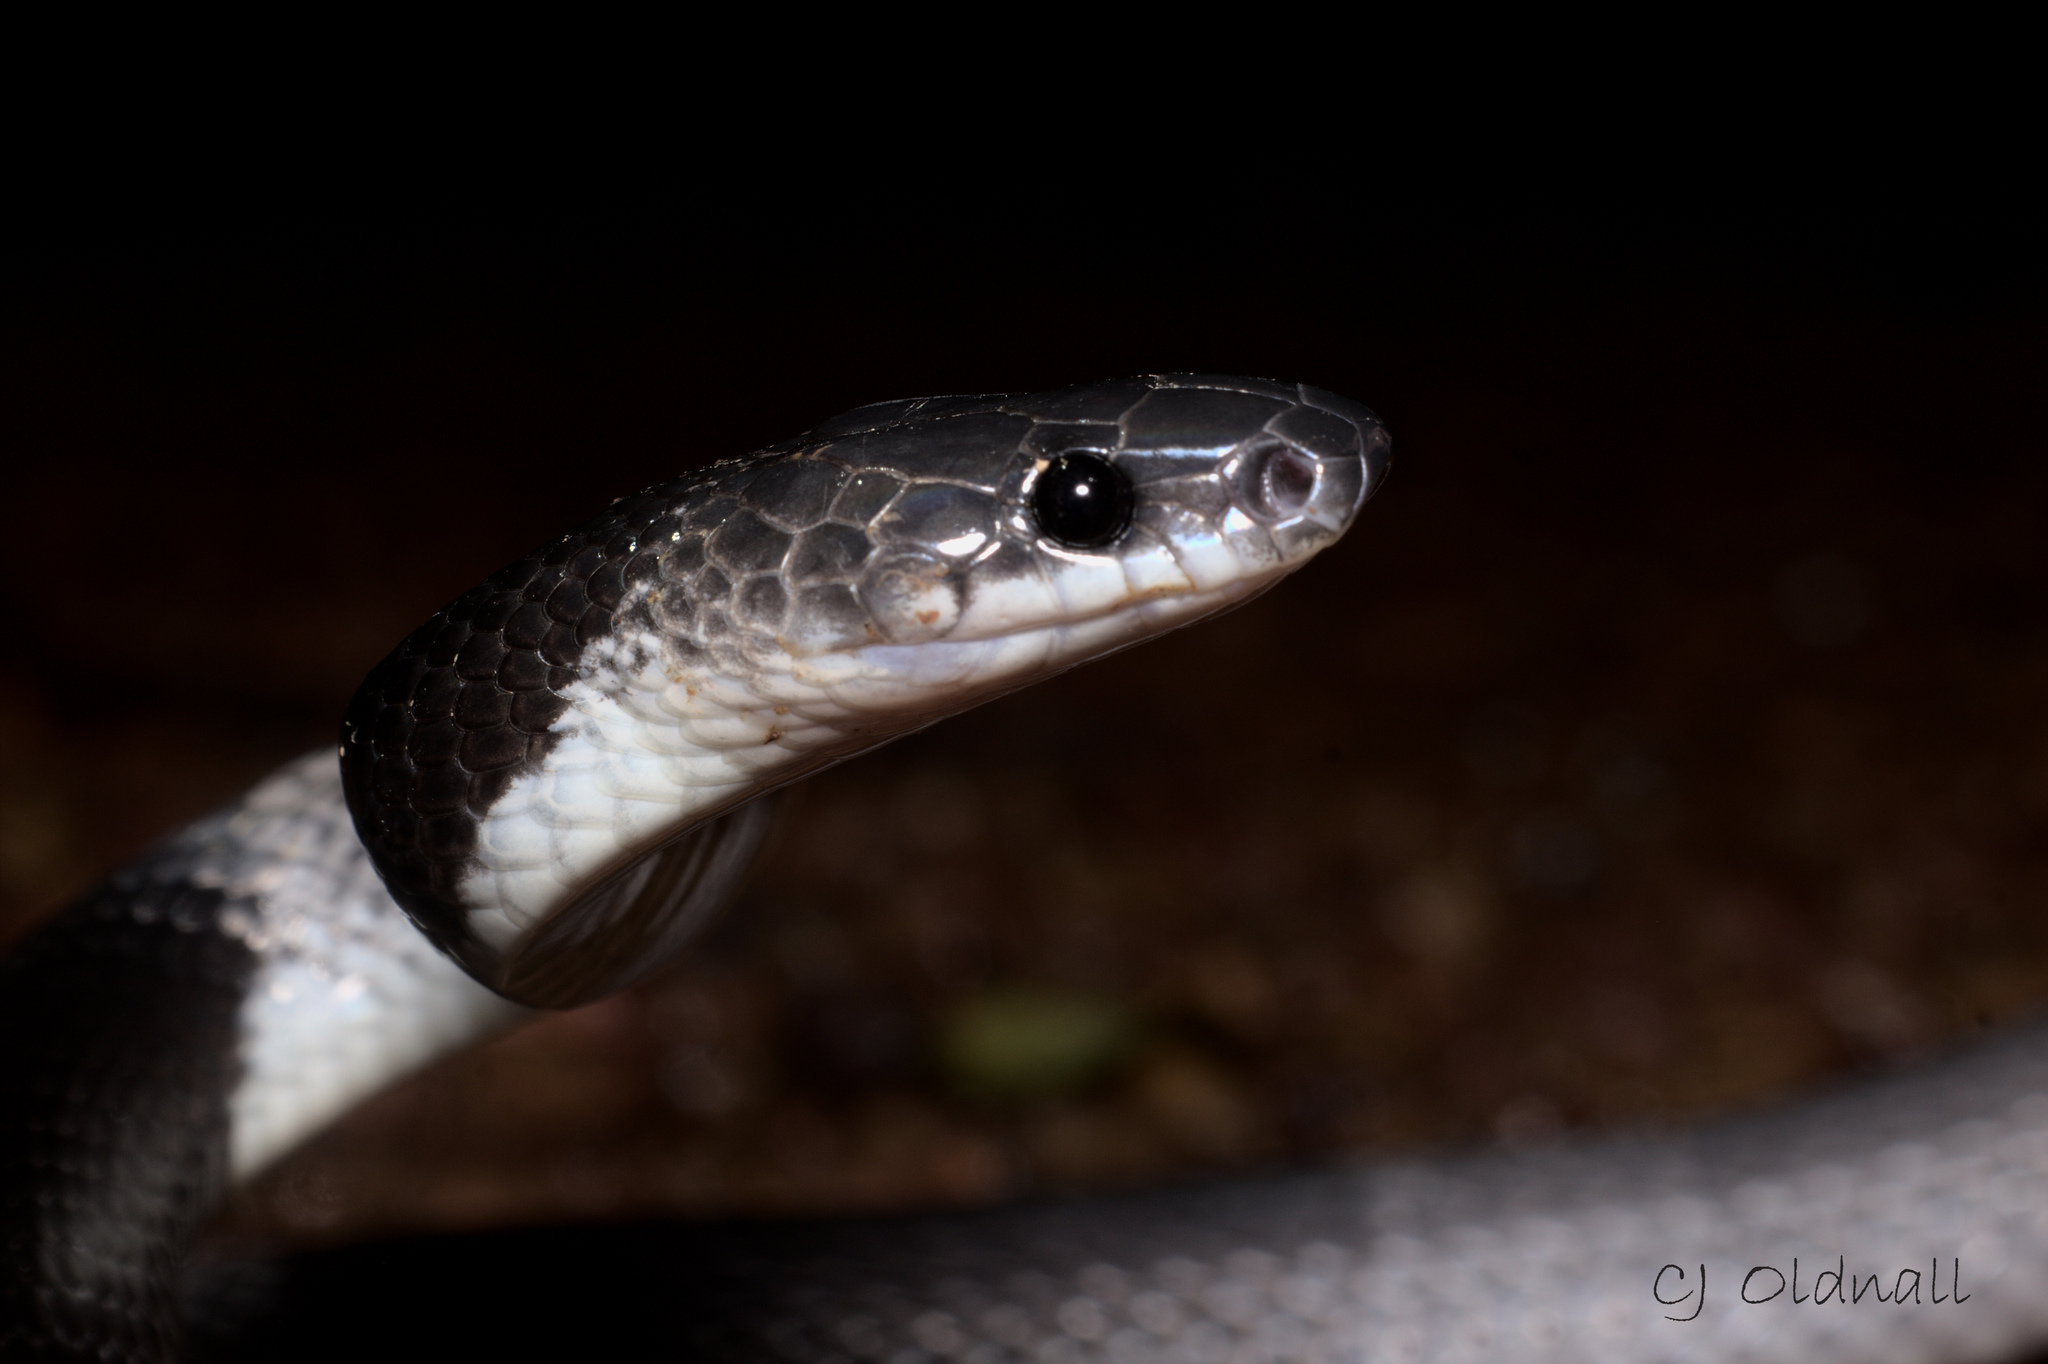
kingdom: Animalia
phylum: Chordata
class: Squamata
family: Colubridae
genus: Lycodon
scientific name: Lycodon subcinctus
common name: Malayan banded wolf snake
